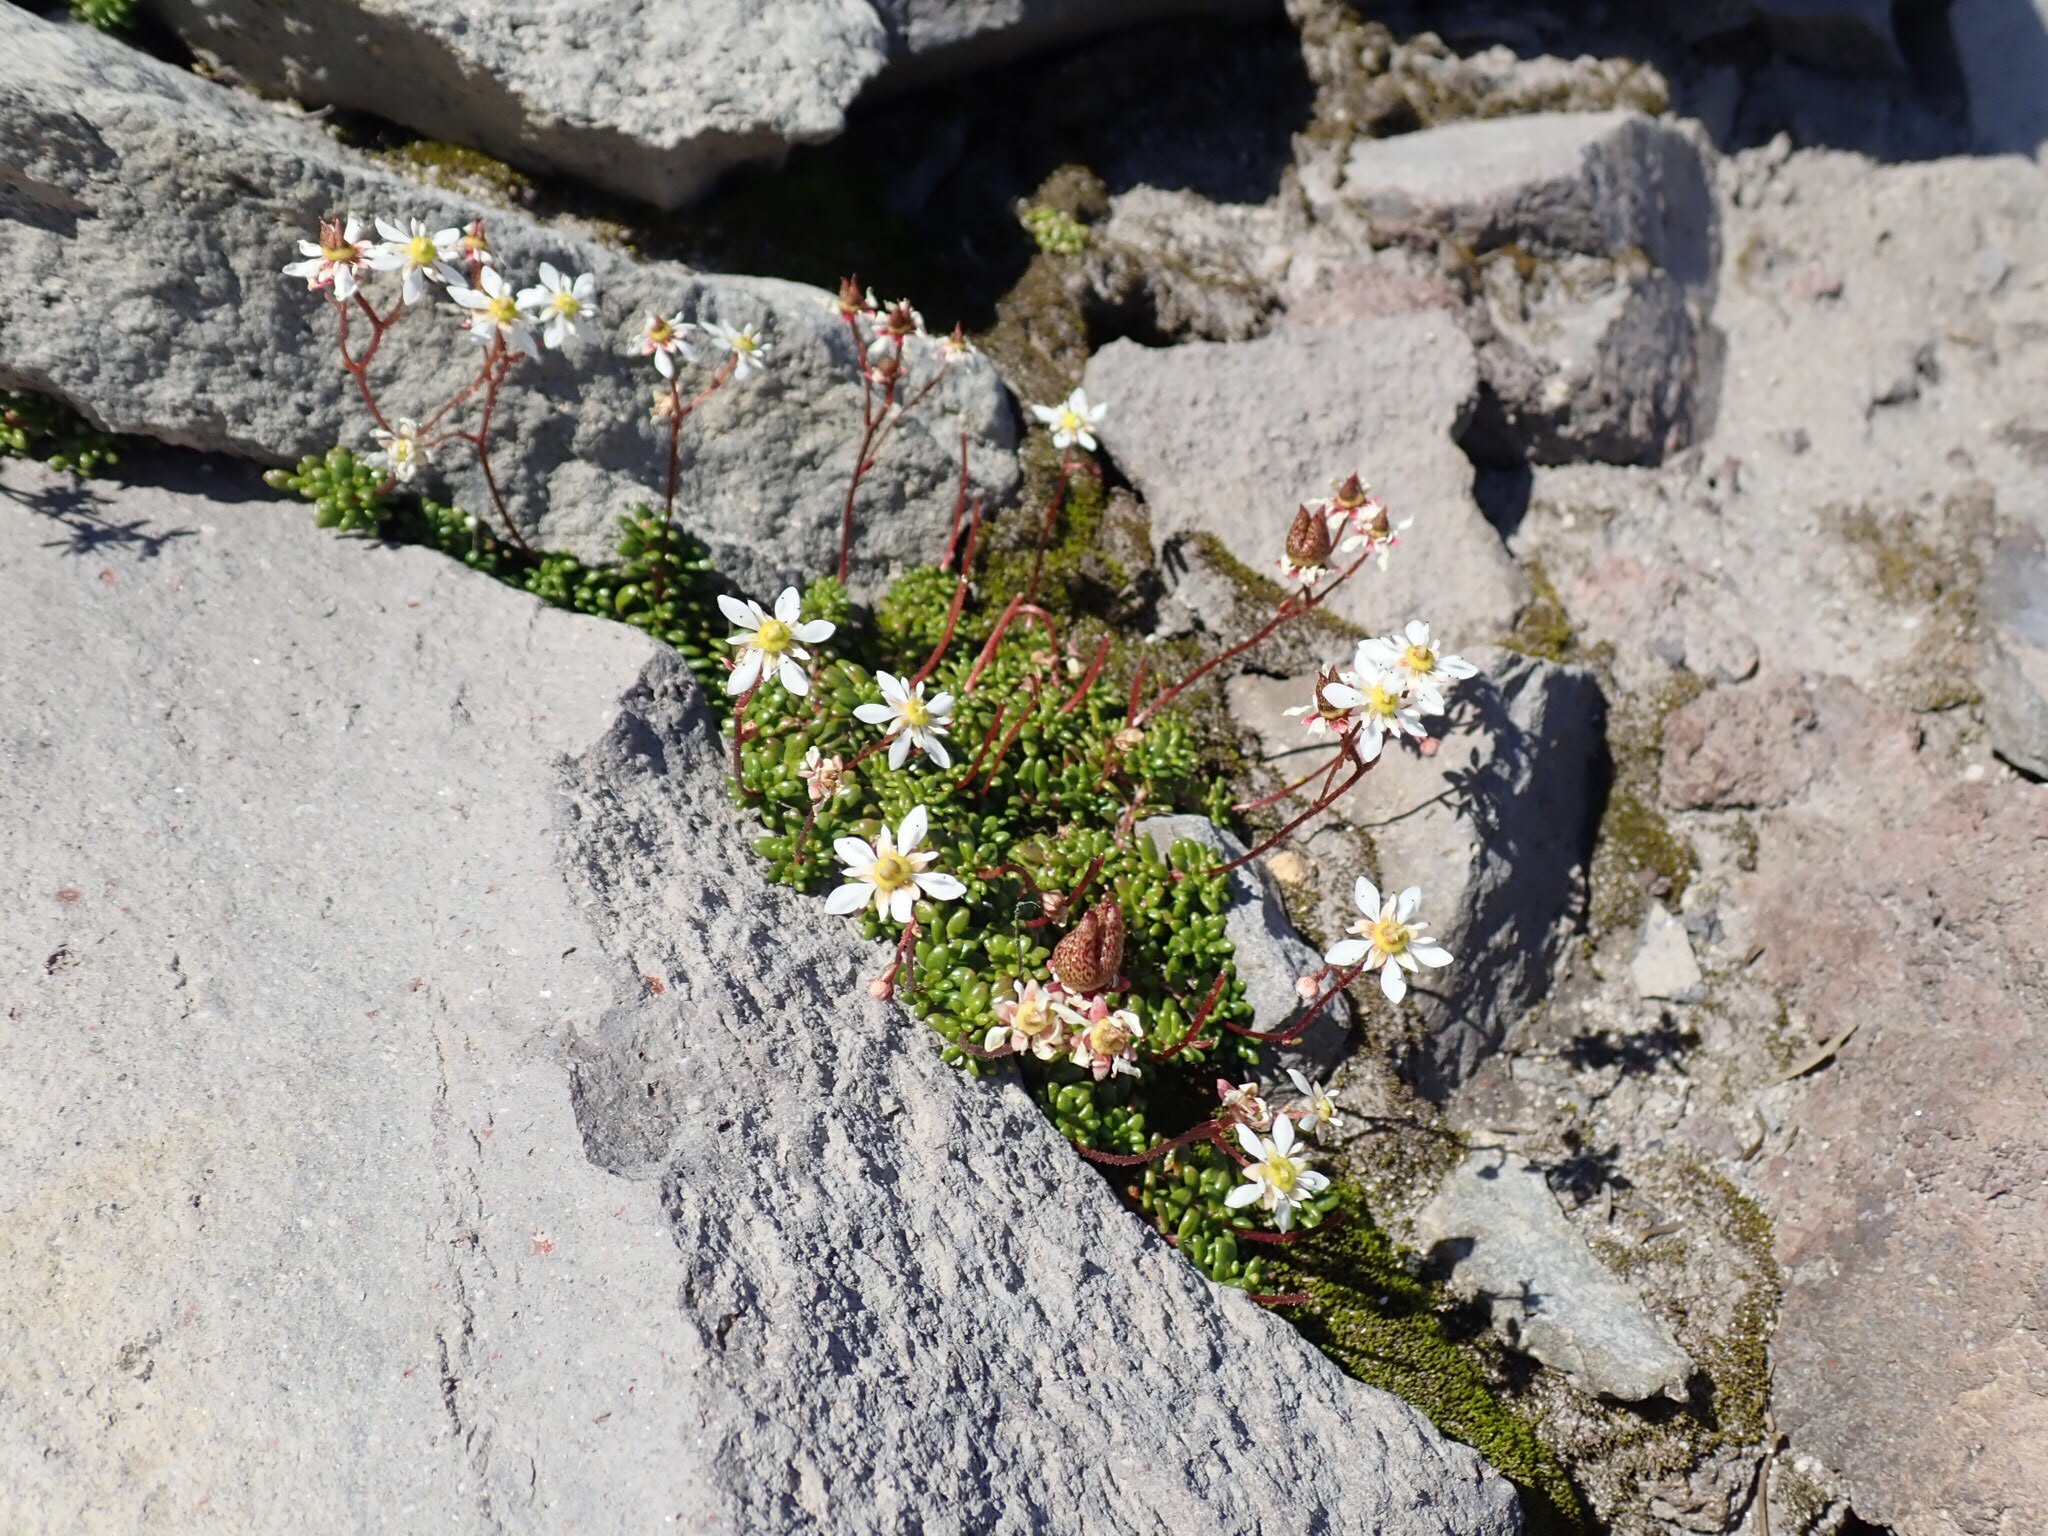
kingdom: Plantae
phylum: Tracheophyta
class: Magnoliopsida
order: Saxifragales
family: Saxifragaceae
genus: Micranthes
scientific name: Micranthes tolmiei
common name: Tolmie's saxifrage
